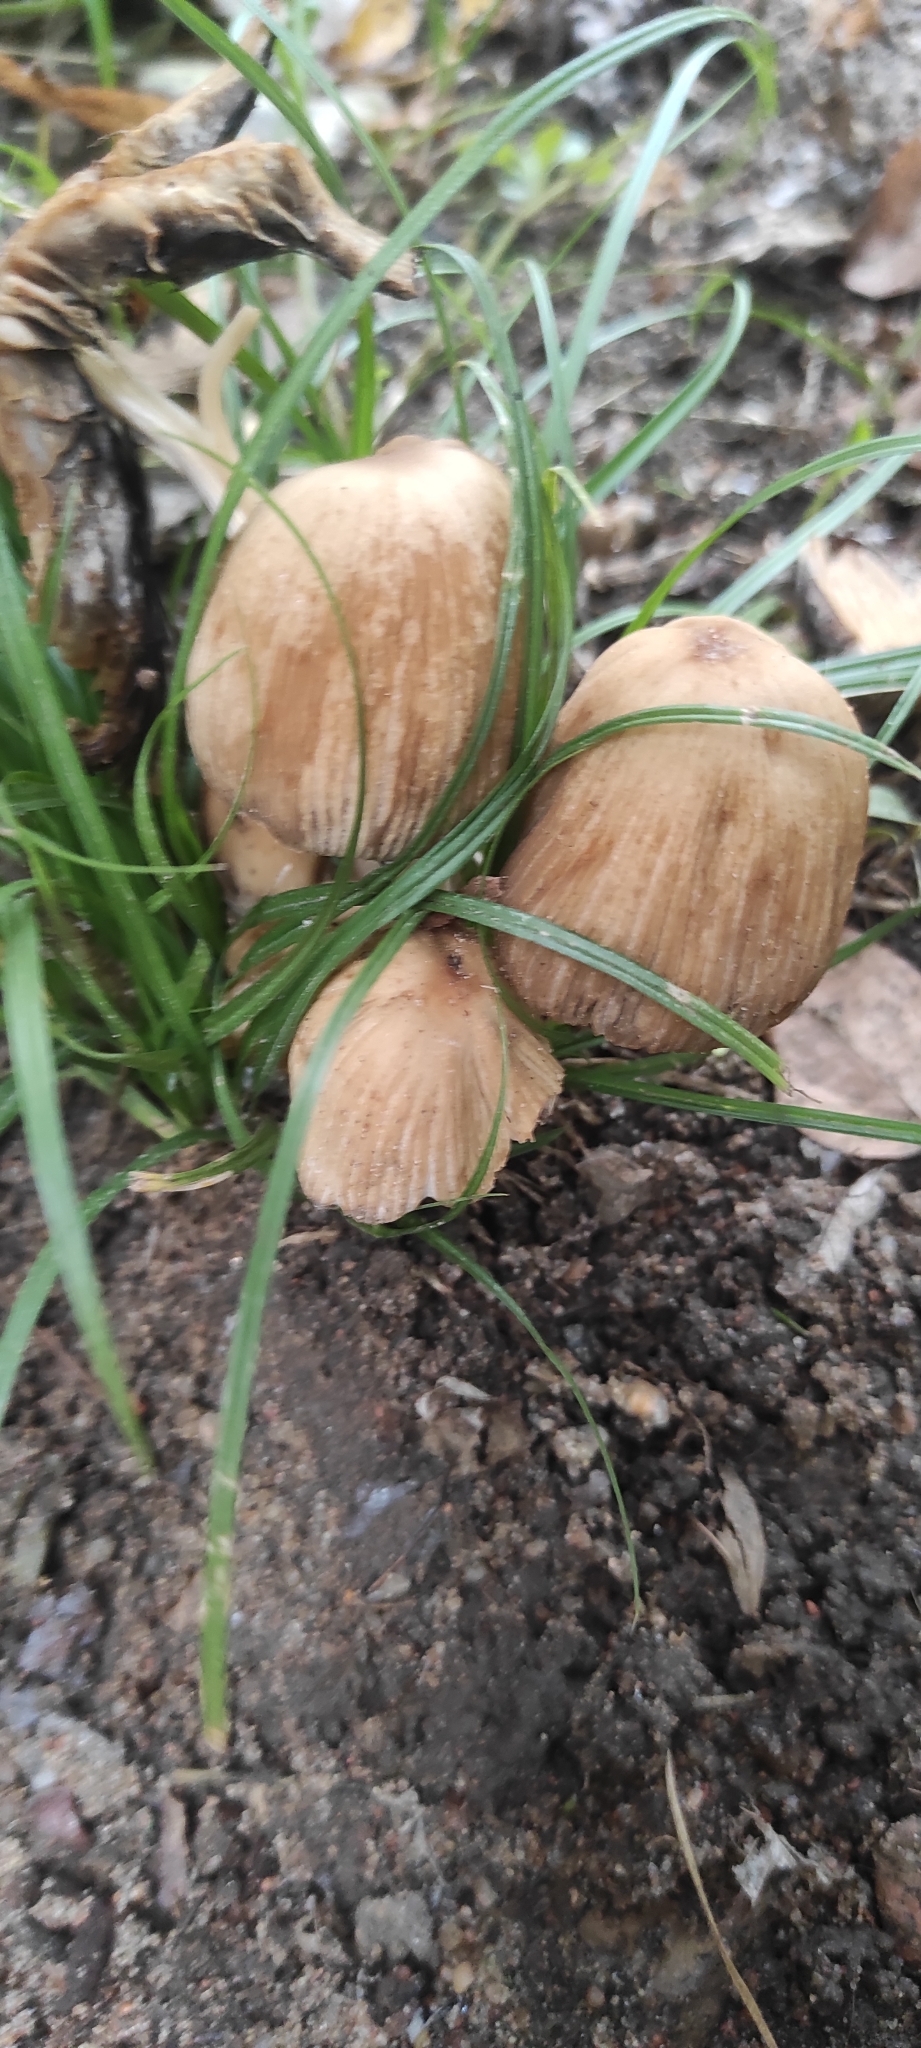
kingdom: Fungi
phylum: Basidiomycota
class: Agaricomycetes
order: Agaricales
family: Psathyrellaceae
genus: Coprinellus
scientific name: Coprinellus micaceus
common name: Glistening ink-cap
